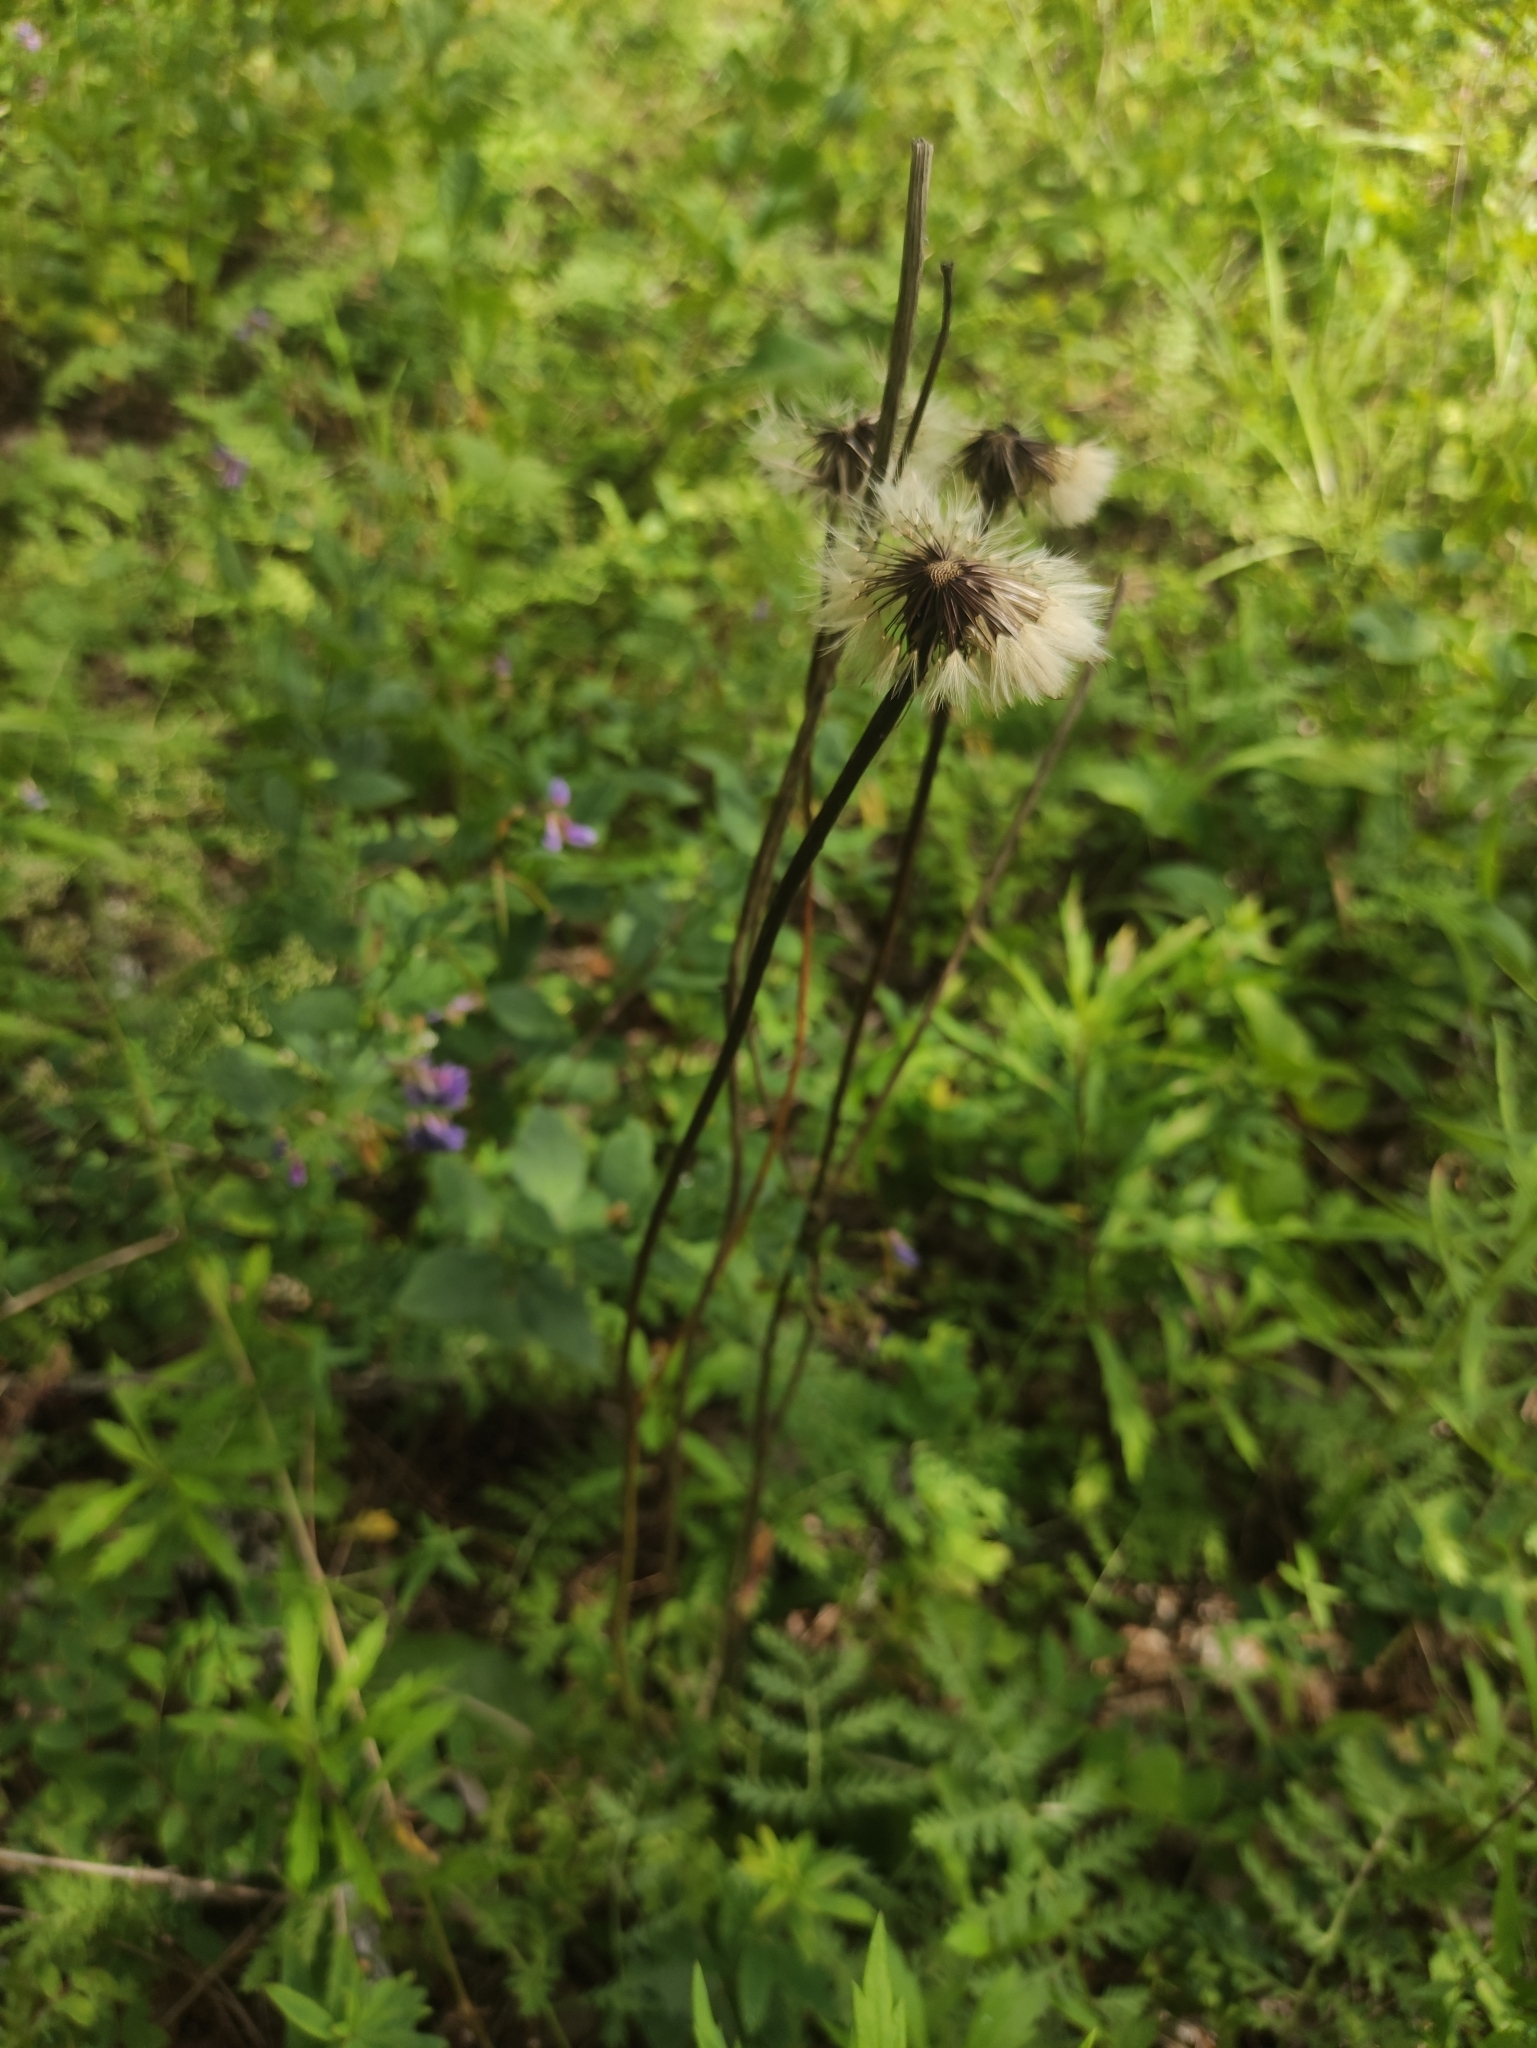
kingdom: Plantae
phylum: Tracheophyta
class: Magnoliopsida
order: Asterales
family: Asteraceae
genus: Trommsdorffia
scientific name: Trommsdorffia maculata
